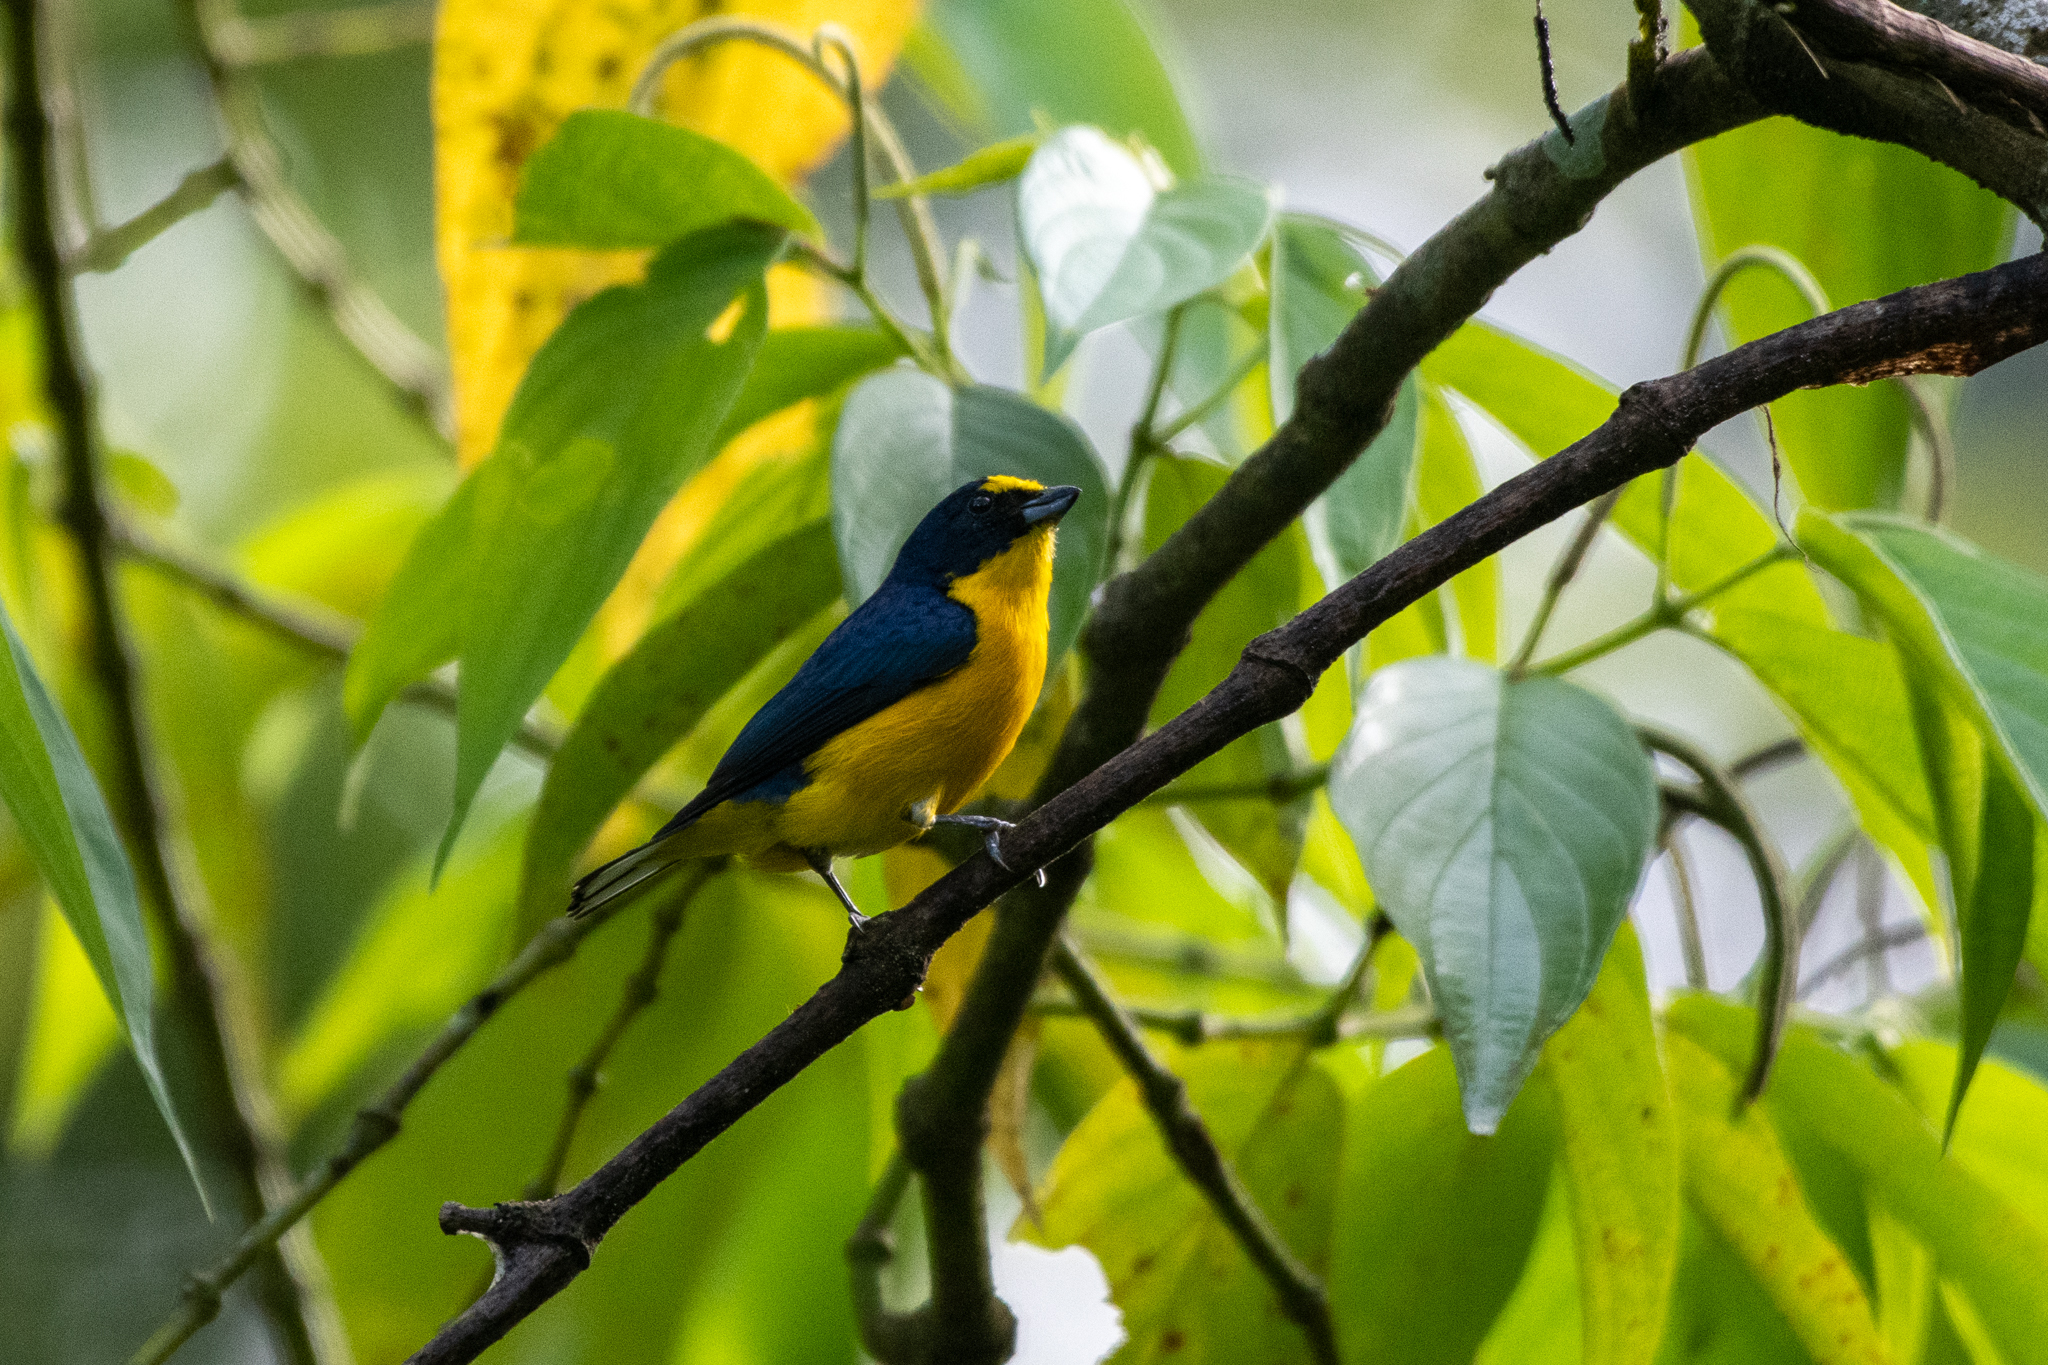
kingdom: Animalia
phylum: Chordata
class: Aves
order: Passeriformes
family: Fringillidae
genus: Euphonia
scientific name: Euphonia hirundinacea
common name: Yellow-throated euphonia
